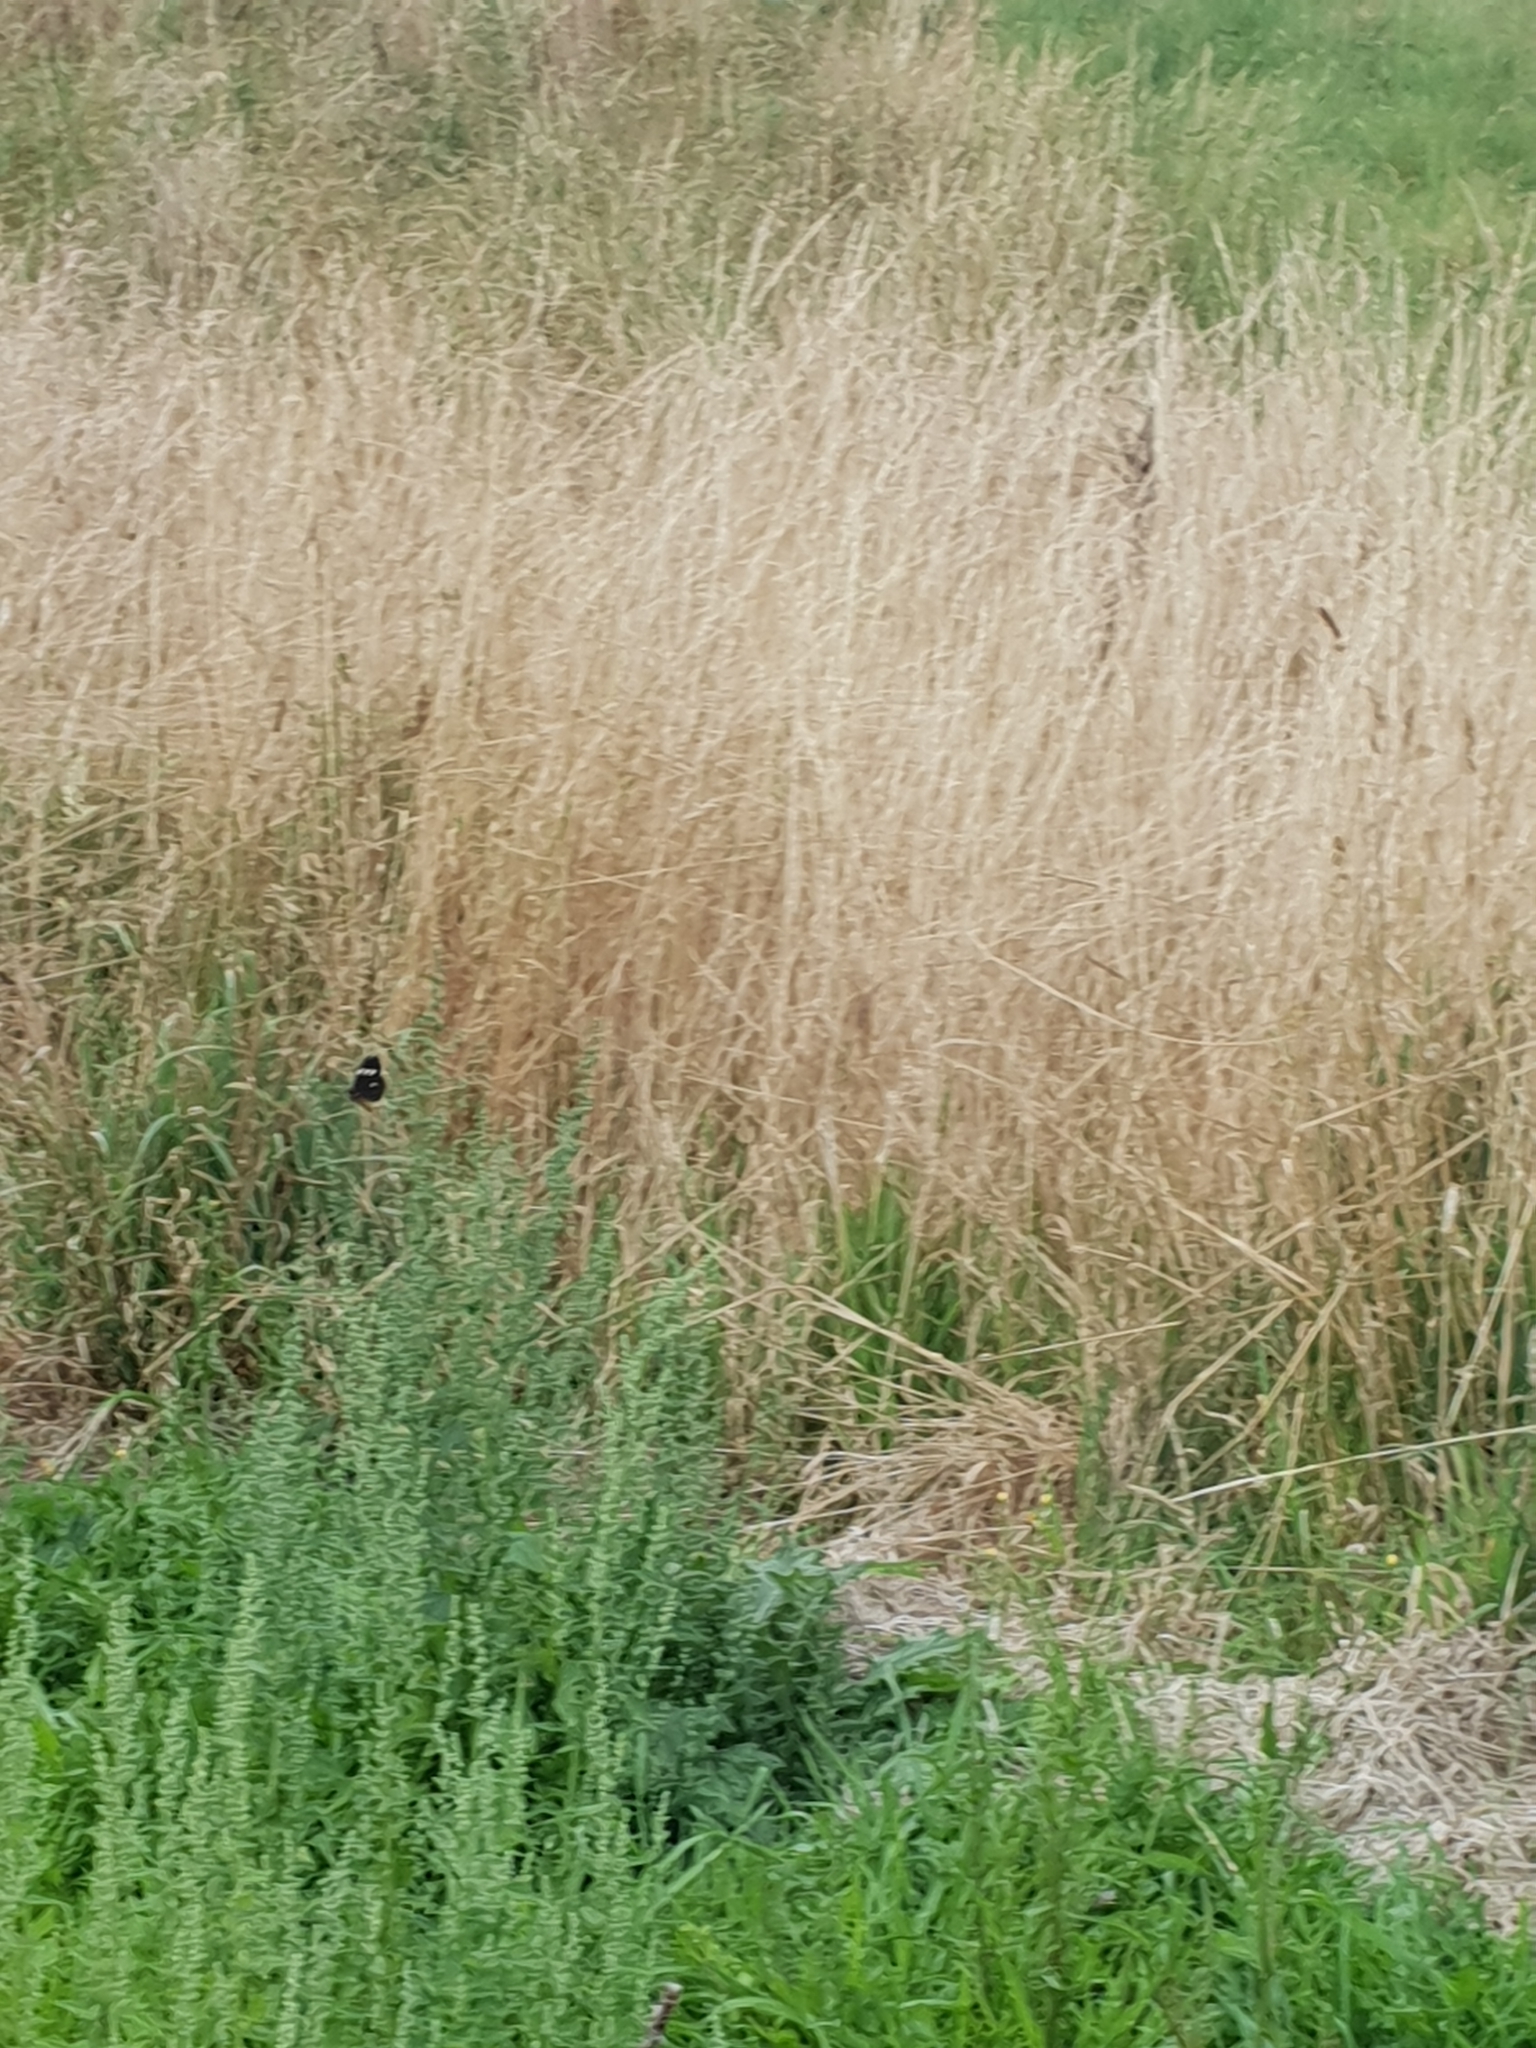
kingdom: Animalia
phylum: Arthropoda
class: Insecta
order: Lepidoptera
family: Erebidae
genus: Nyctemera
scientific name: Nyctemera annulatum
